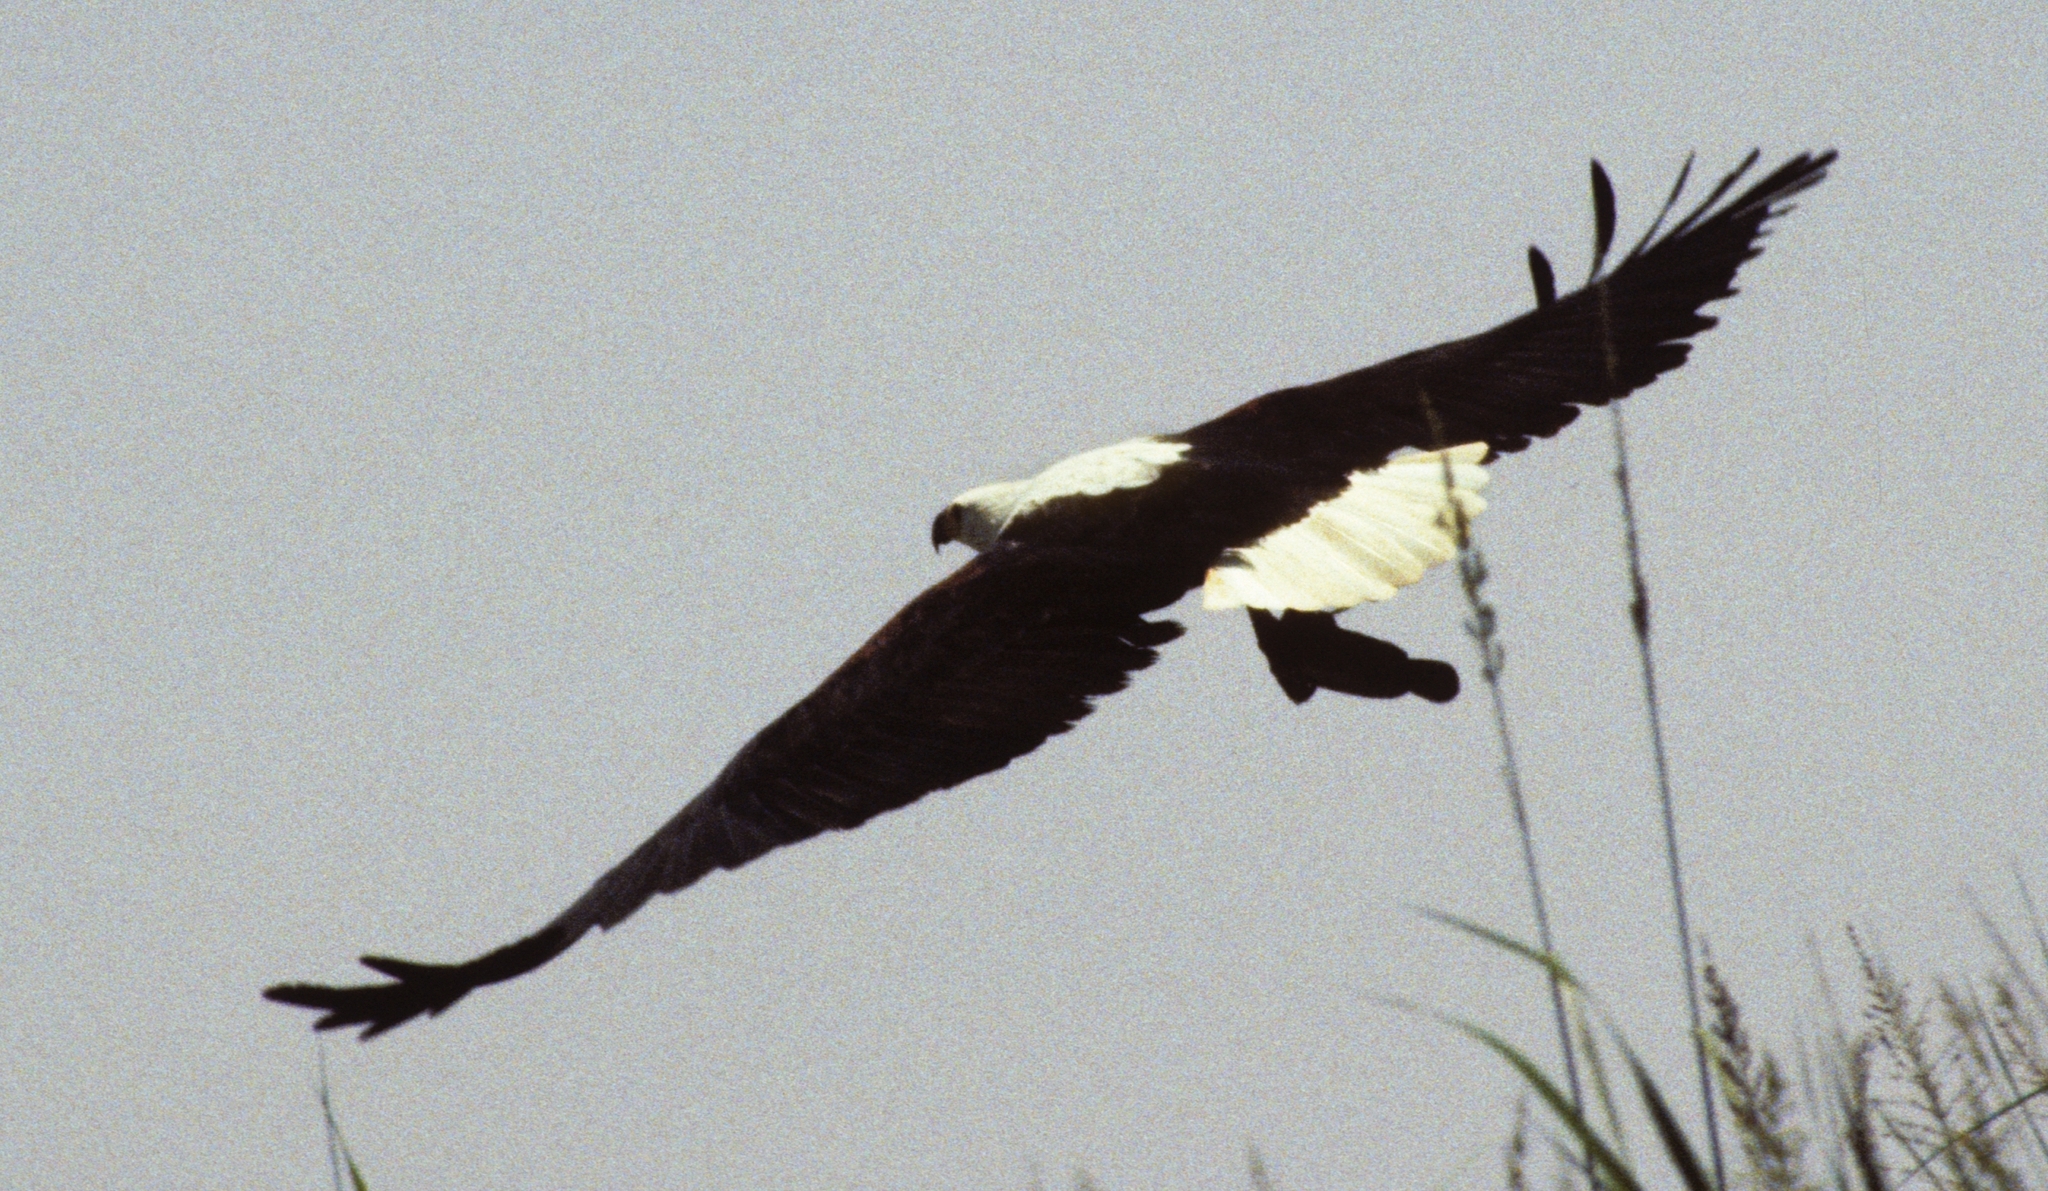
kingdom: Animalia
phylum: Chordata
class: Aves
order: Accipitriformes
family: Accipitridae
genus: Haliaeetus
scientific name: Haliaeetus vocifer
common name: African fish eagle
